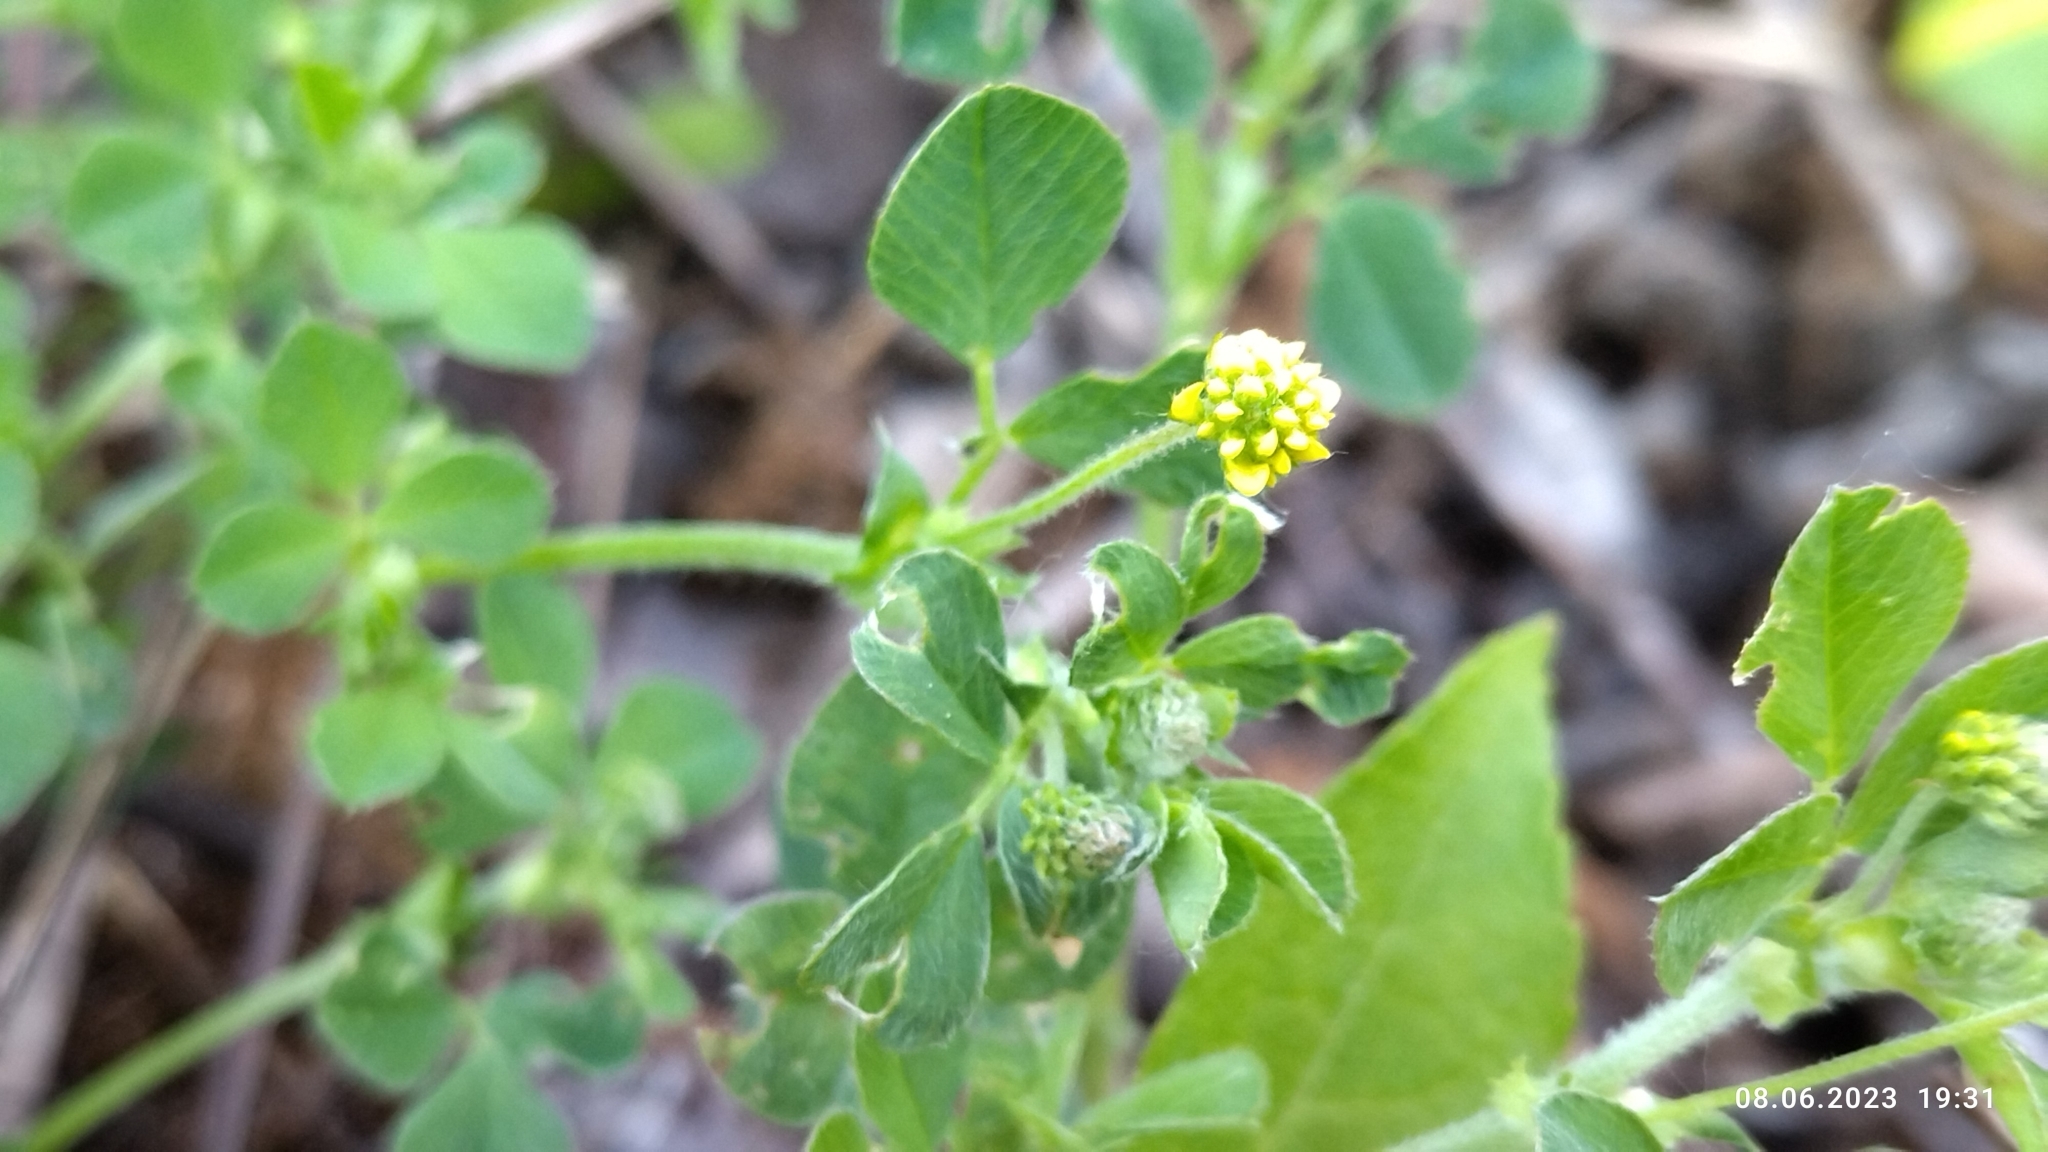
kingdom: Plantae
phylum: Tracheophyta
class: Magnoliopsida
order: Fabales
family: Fabaceae
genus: Medicago
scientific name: Medicago lupulina
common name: Black medick
